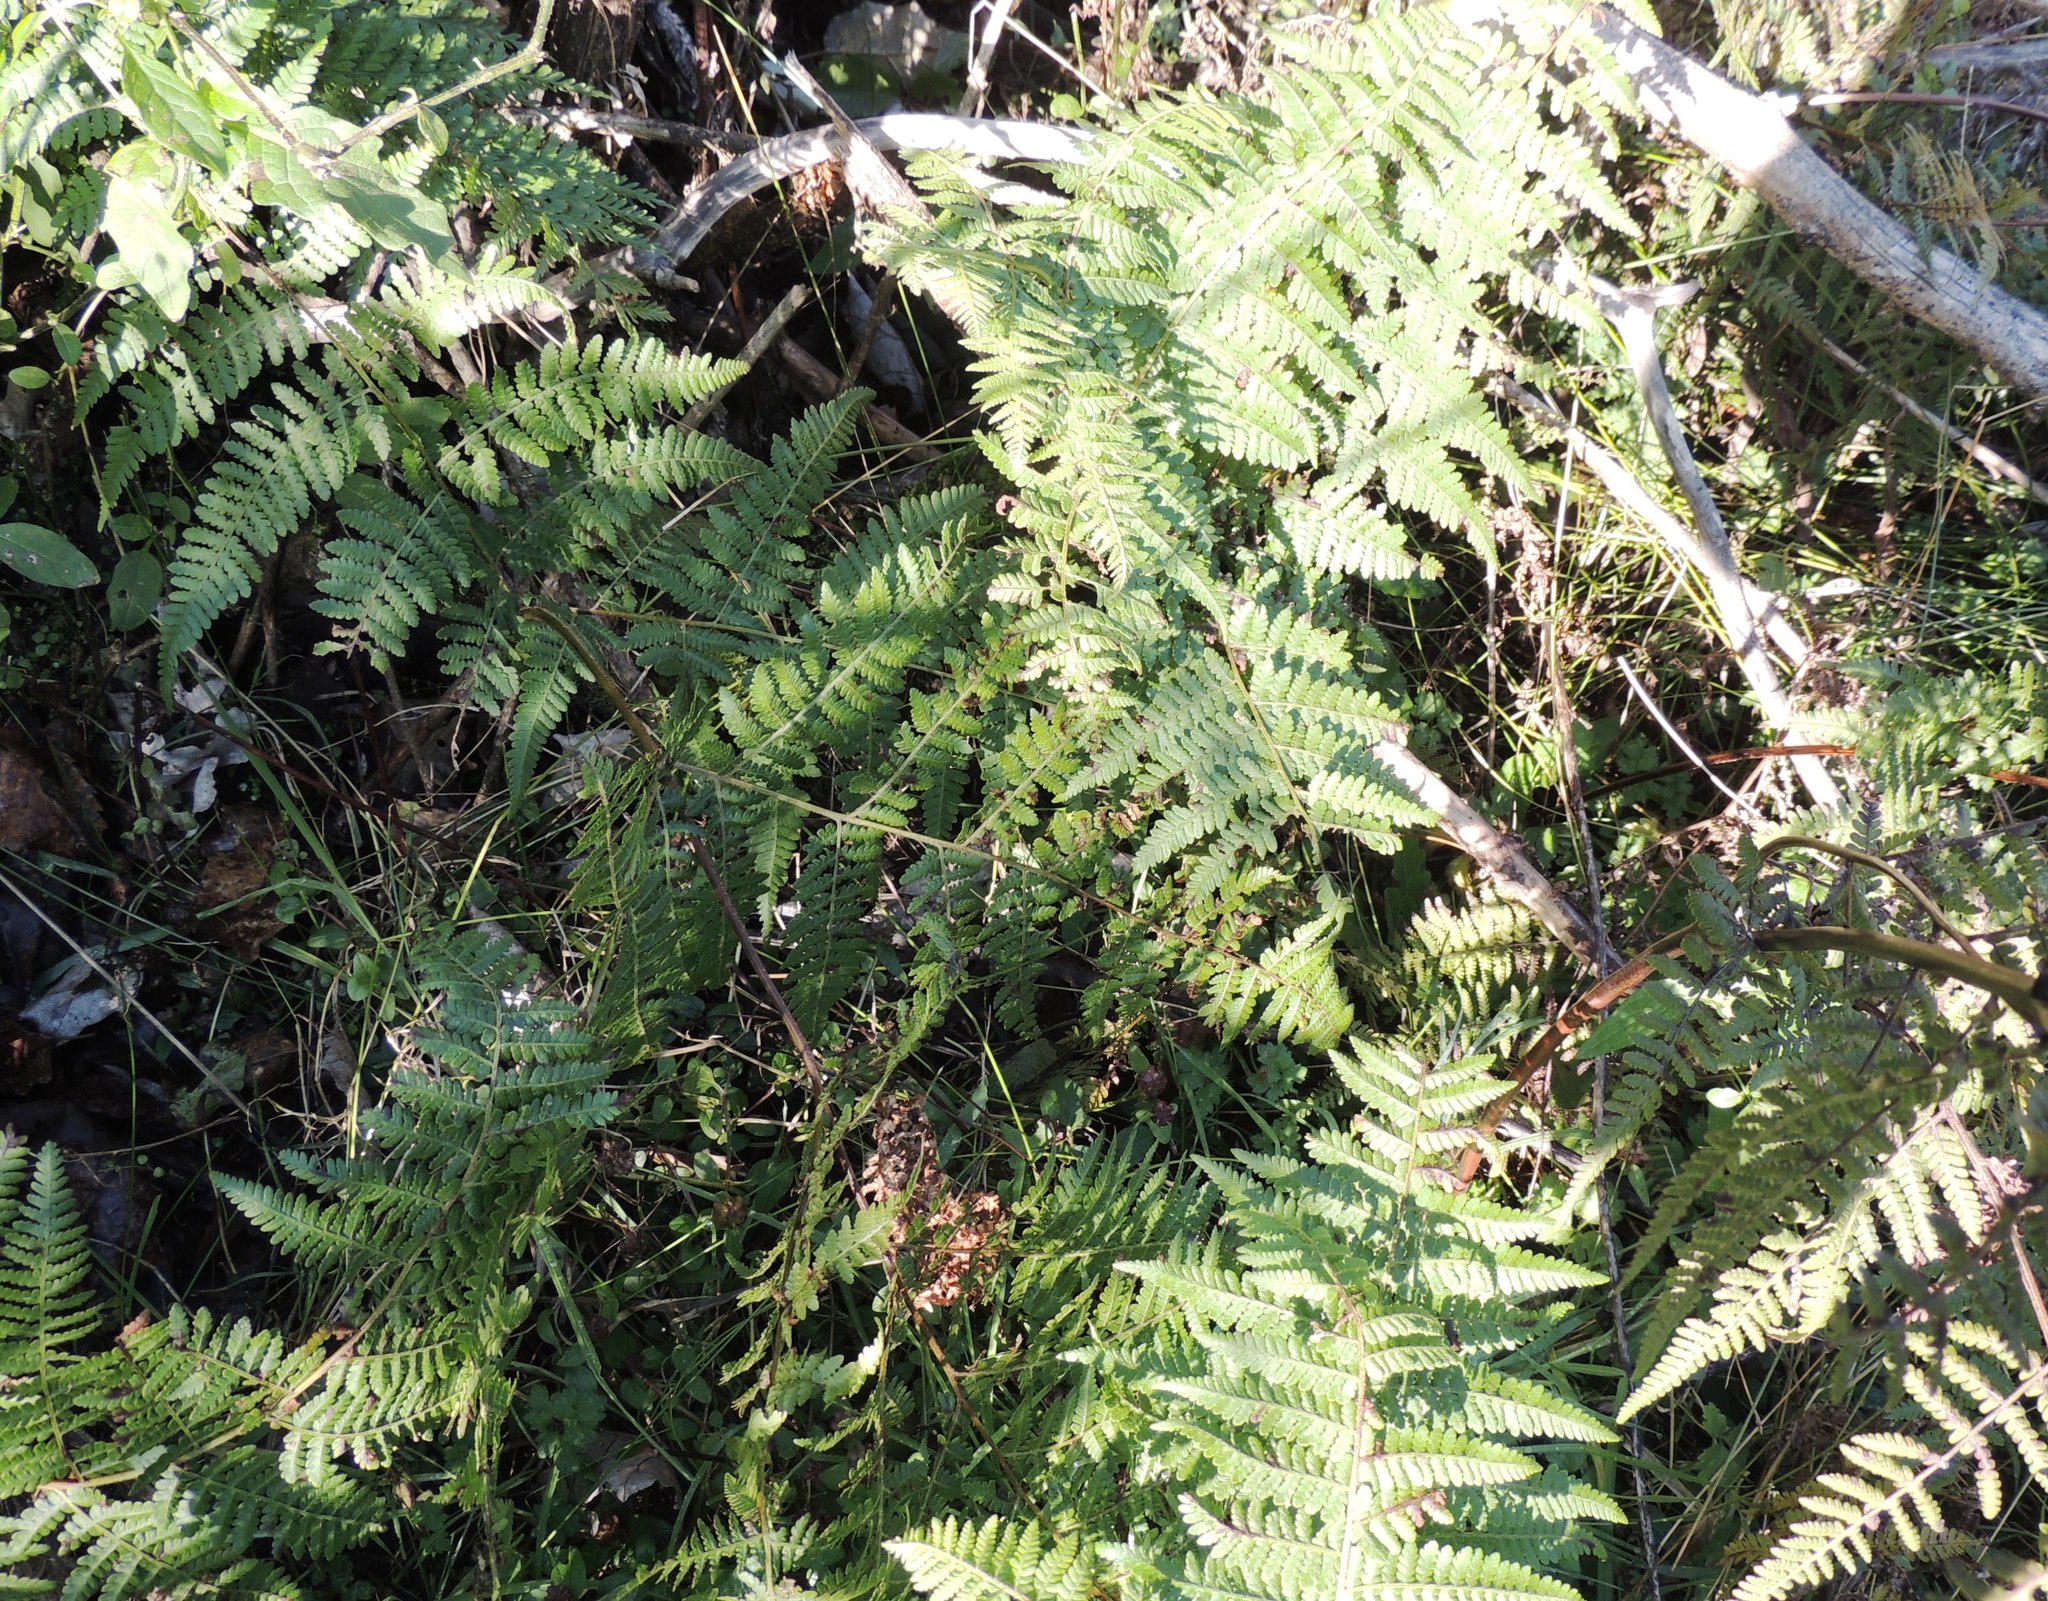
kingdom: Plantae
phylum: Tracheophyta
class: Polypodiopsida
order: Polypodiales
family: Dennstaedtiaceae
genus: Hypolepis
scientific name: Hypolepis ambigua
